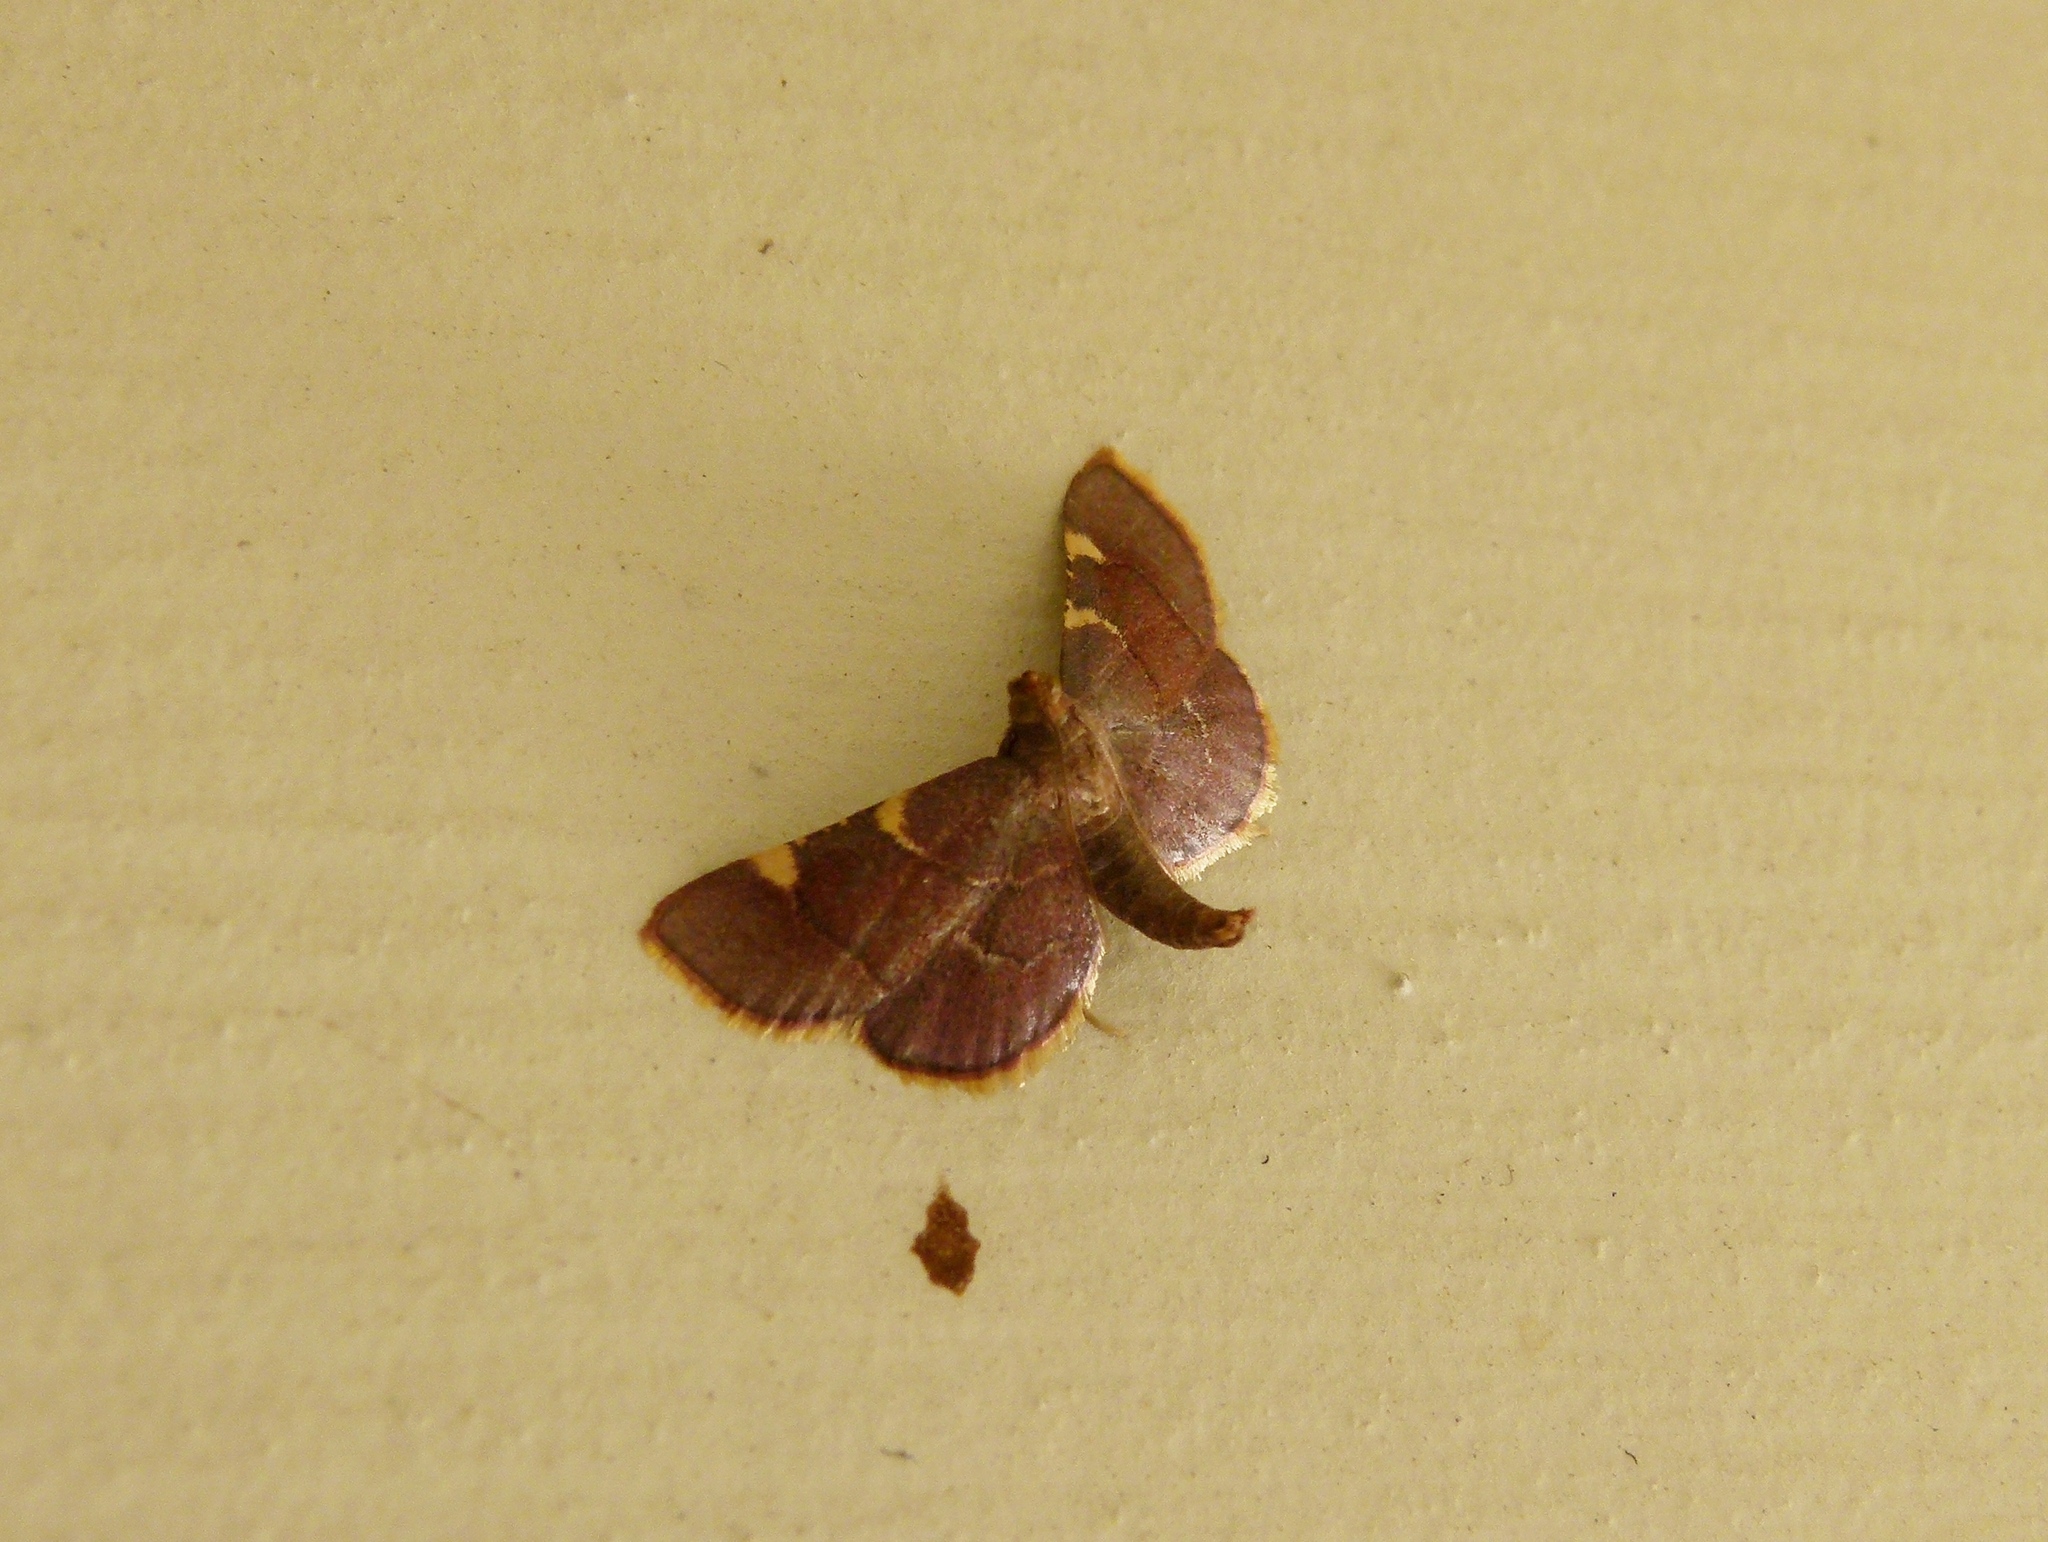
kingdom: Animalia
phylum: Arthropoda
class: Insecta
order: Lepidoptera
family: Pyralidae
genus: Hypsopygia
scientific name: Hypsopygia olinalis
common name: Yellow-fringed dolichomia moth
